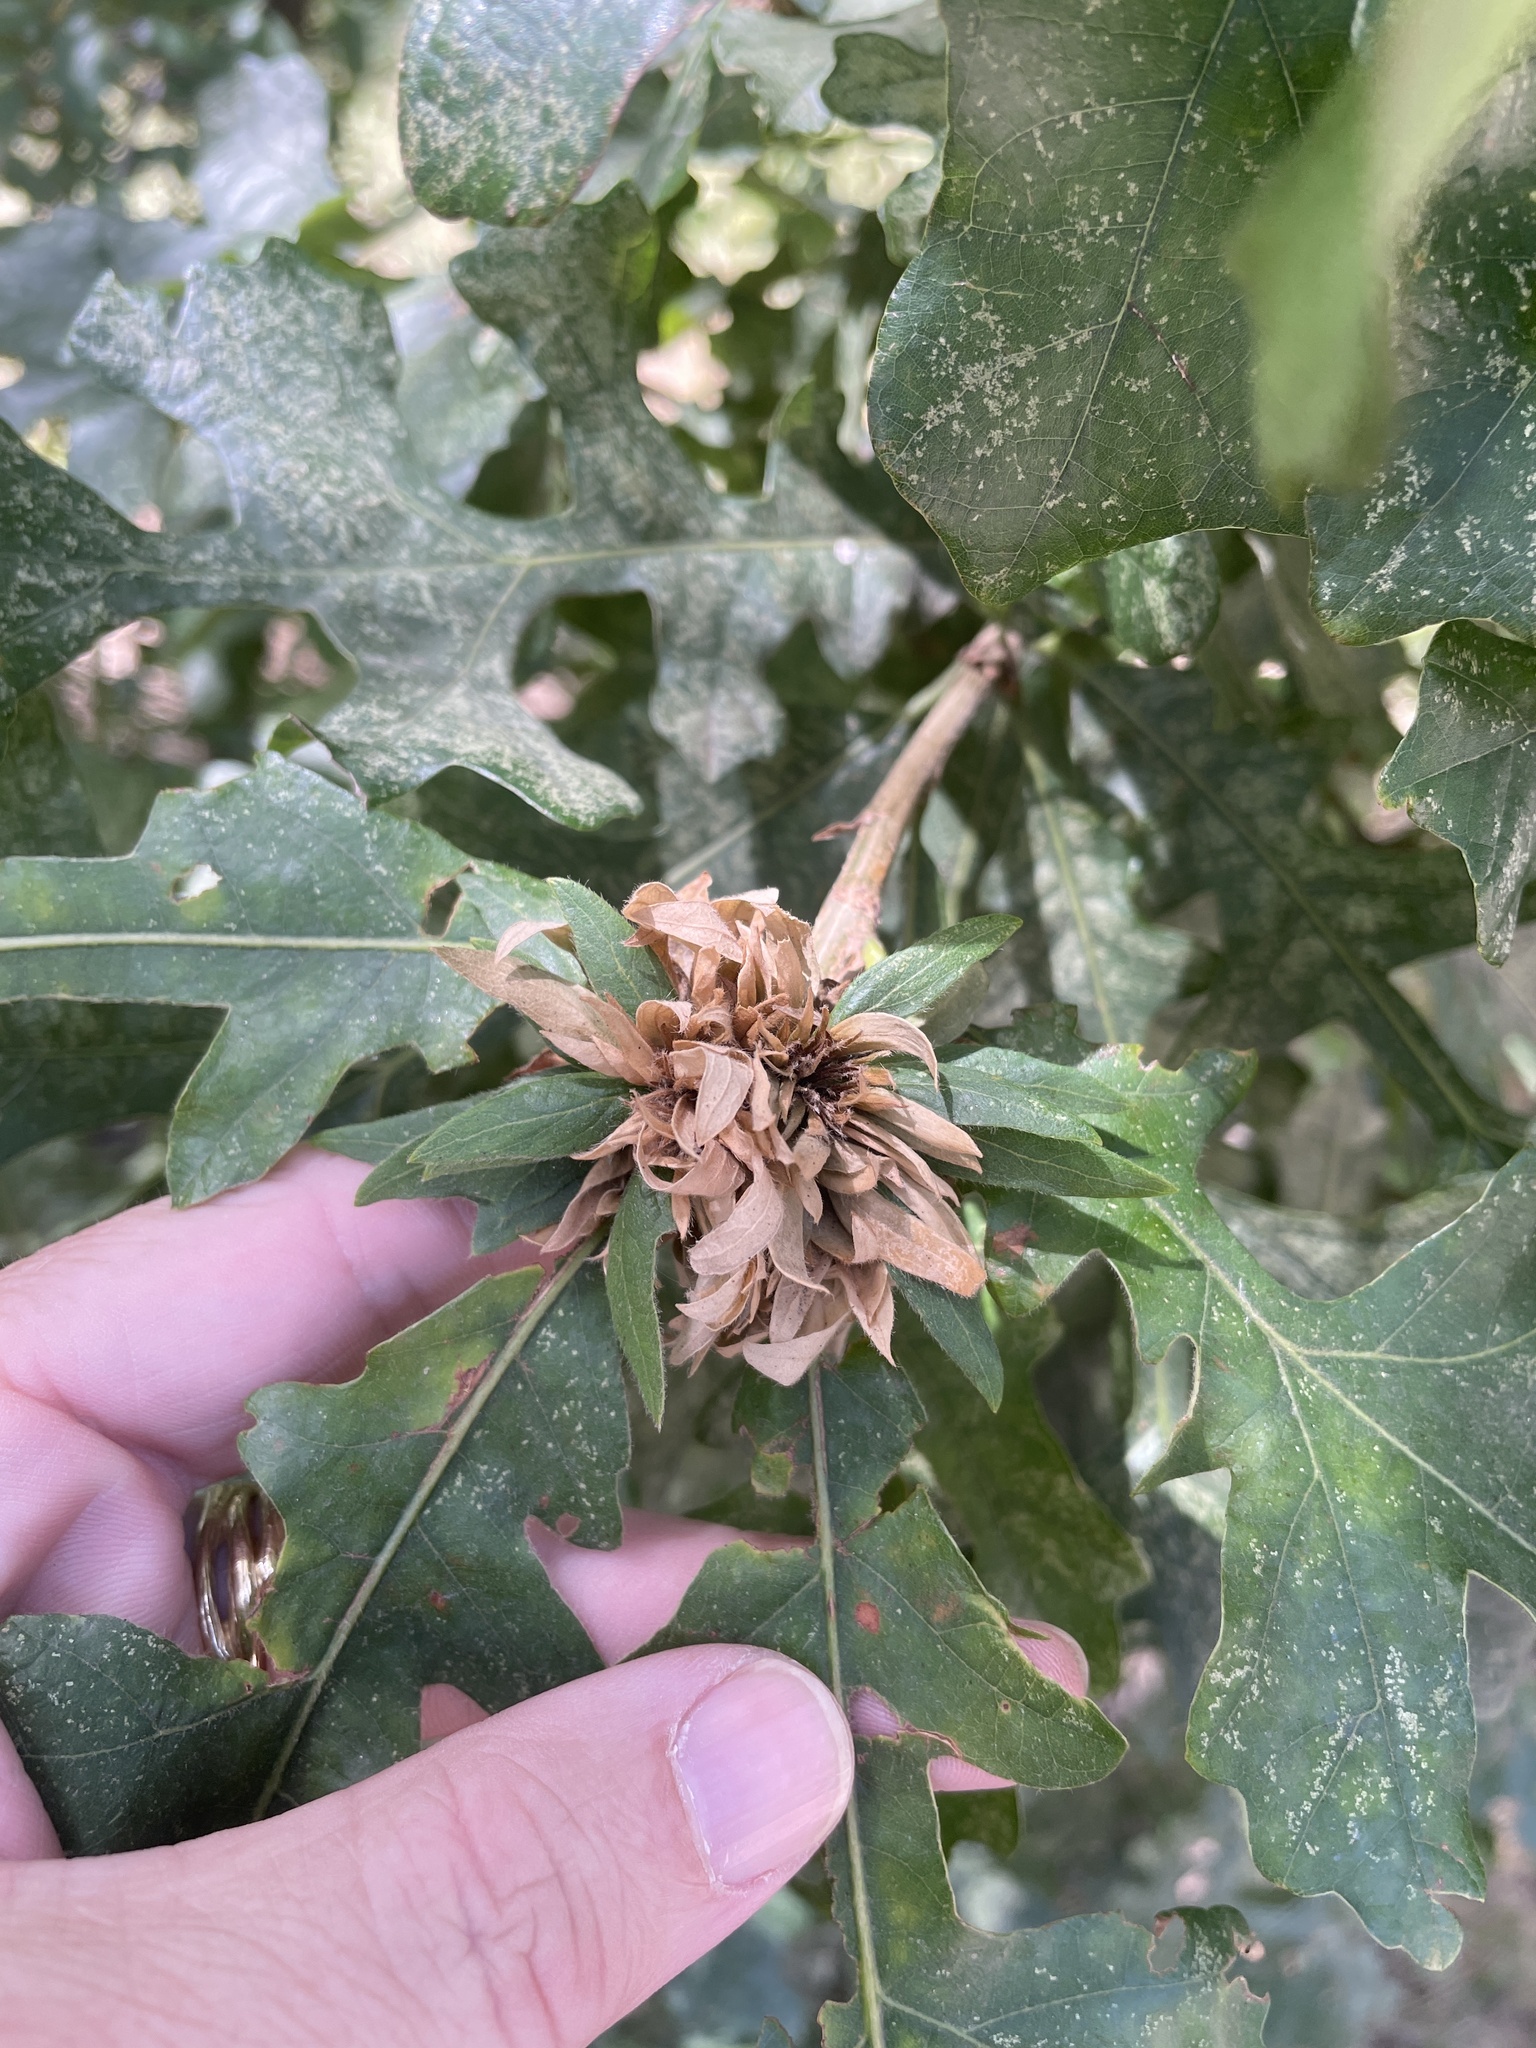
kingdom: Animalia
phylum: Arthropoda
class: Insecta
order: Hymenoptera
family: Cynipidae
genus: Andricus
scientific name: Andricus
